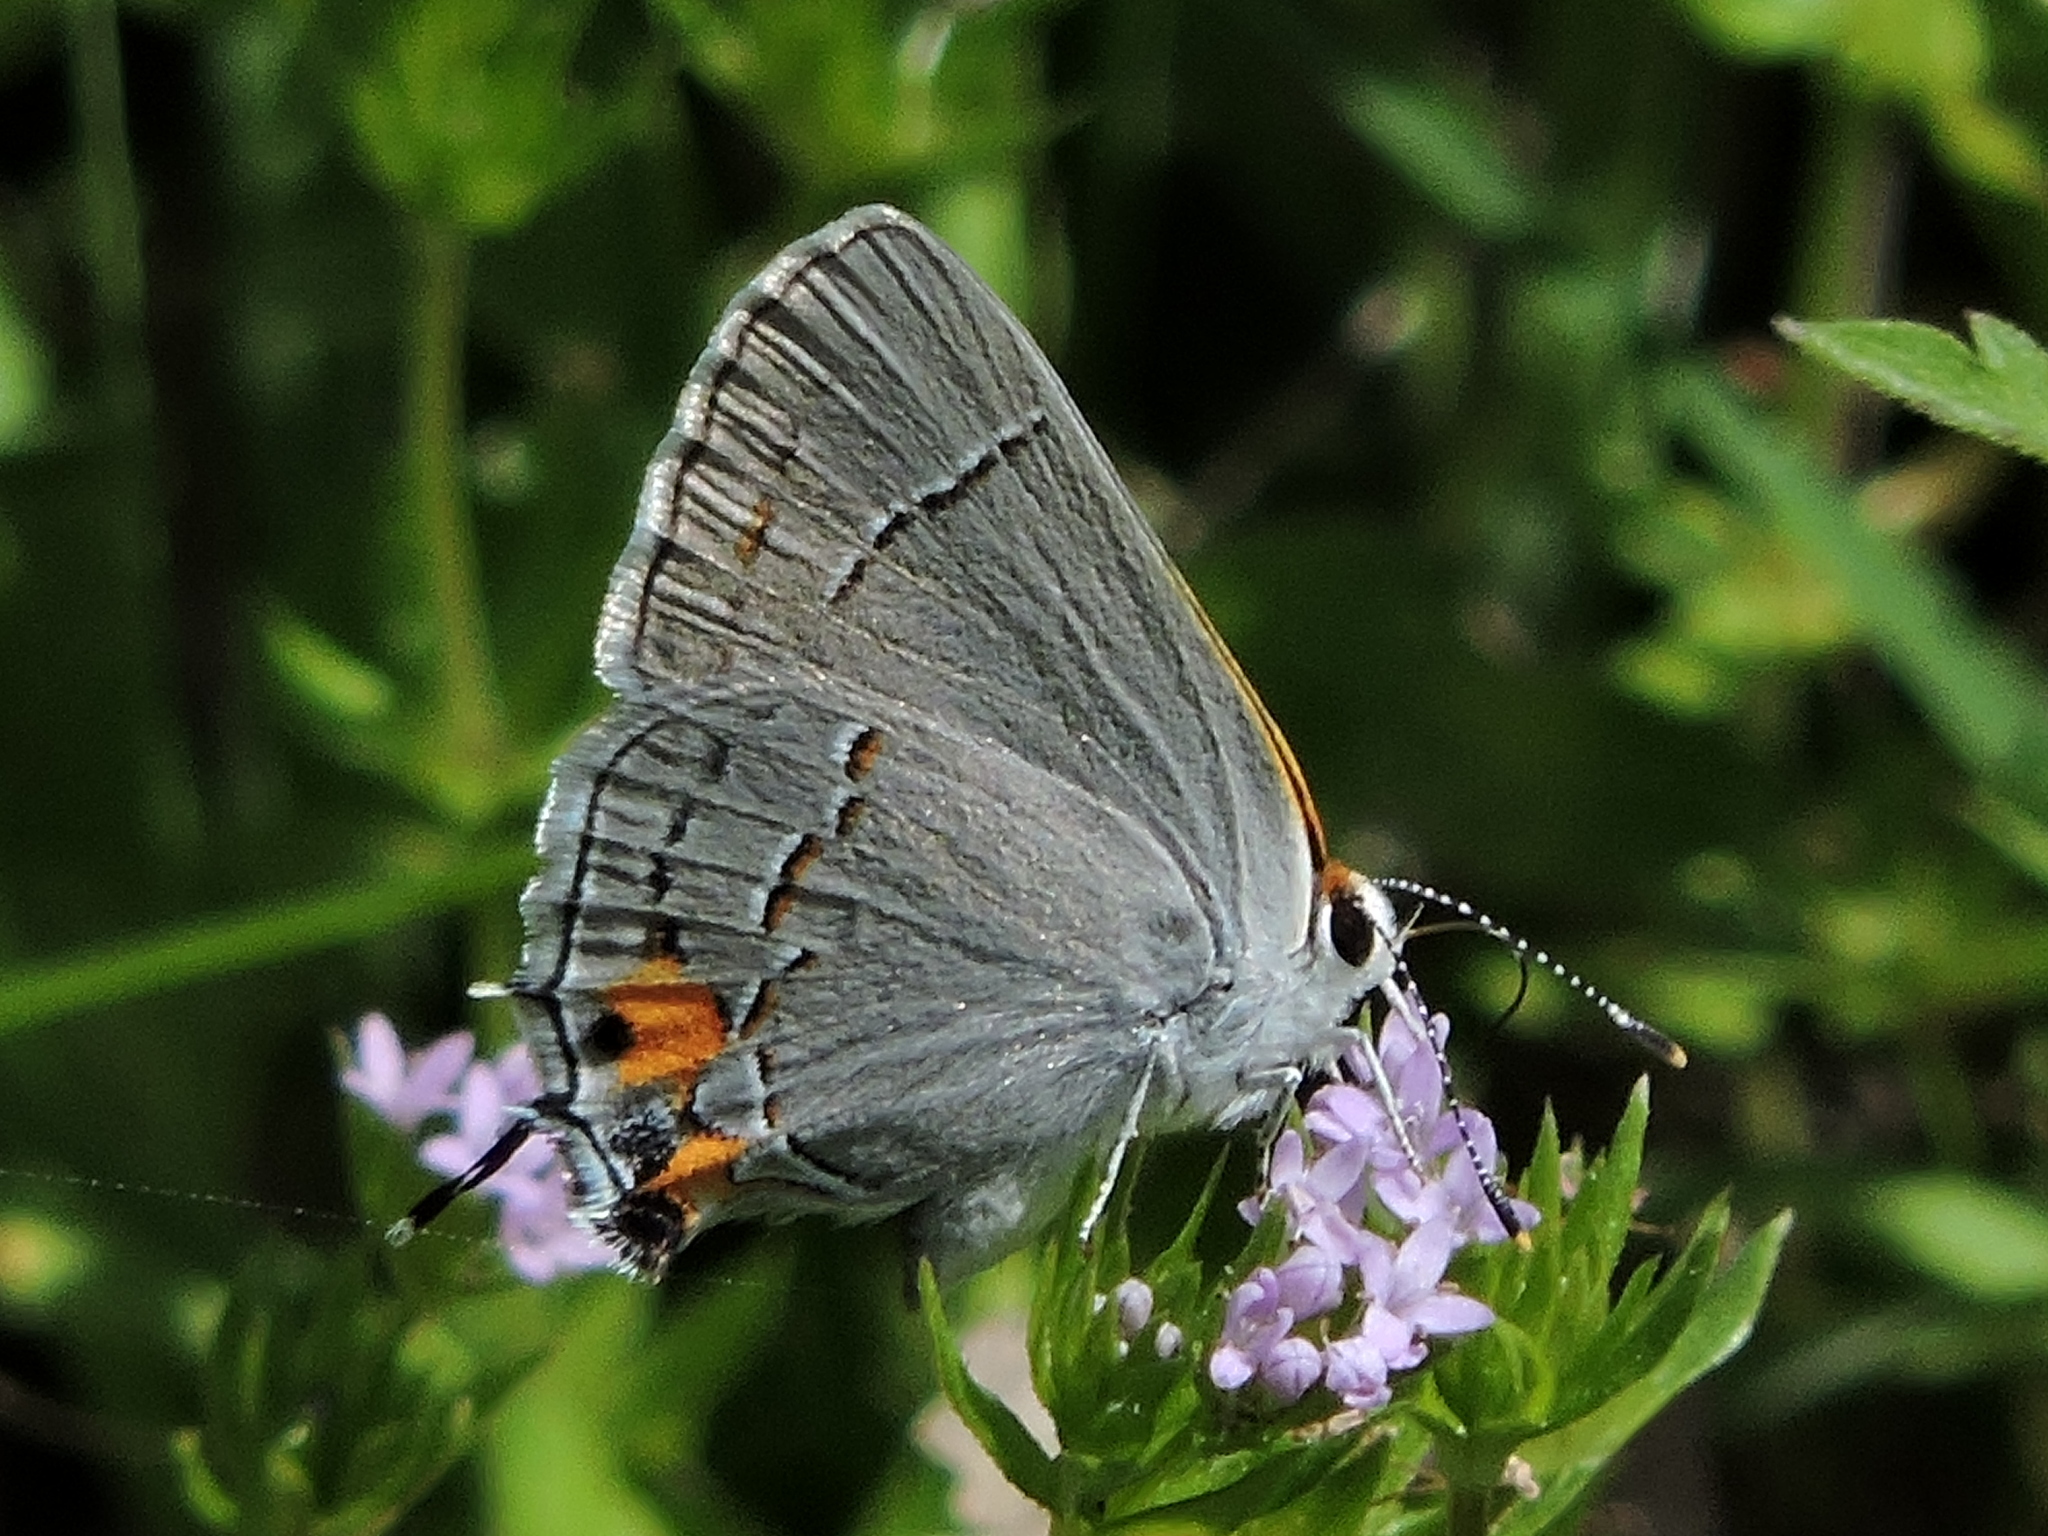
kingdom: Animalia
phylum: Arthropoda
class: Insecta
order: Lepidoptera
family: Lycaenidae
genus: Strymon
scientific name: Strymon melinus
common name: Gray hairstreak
